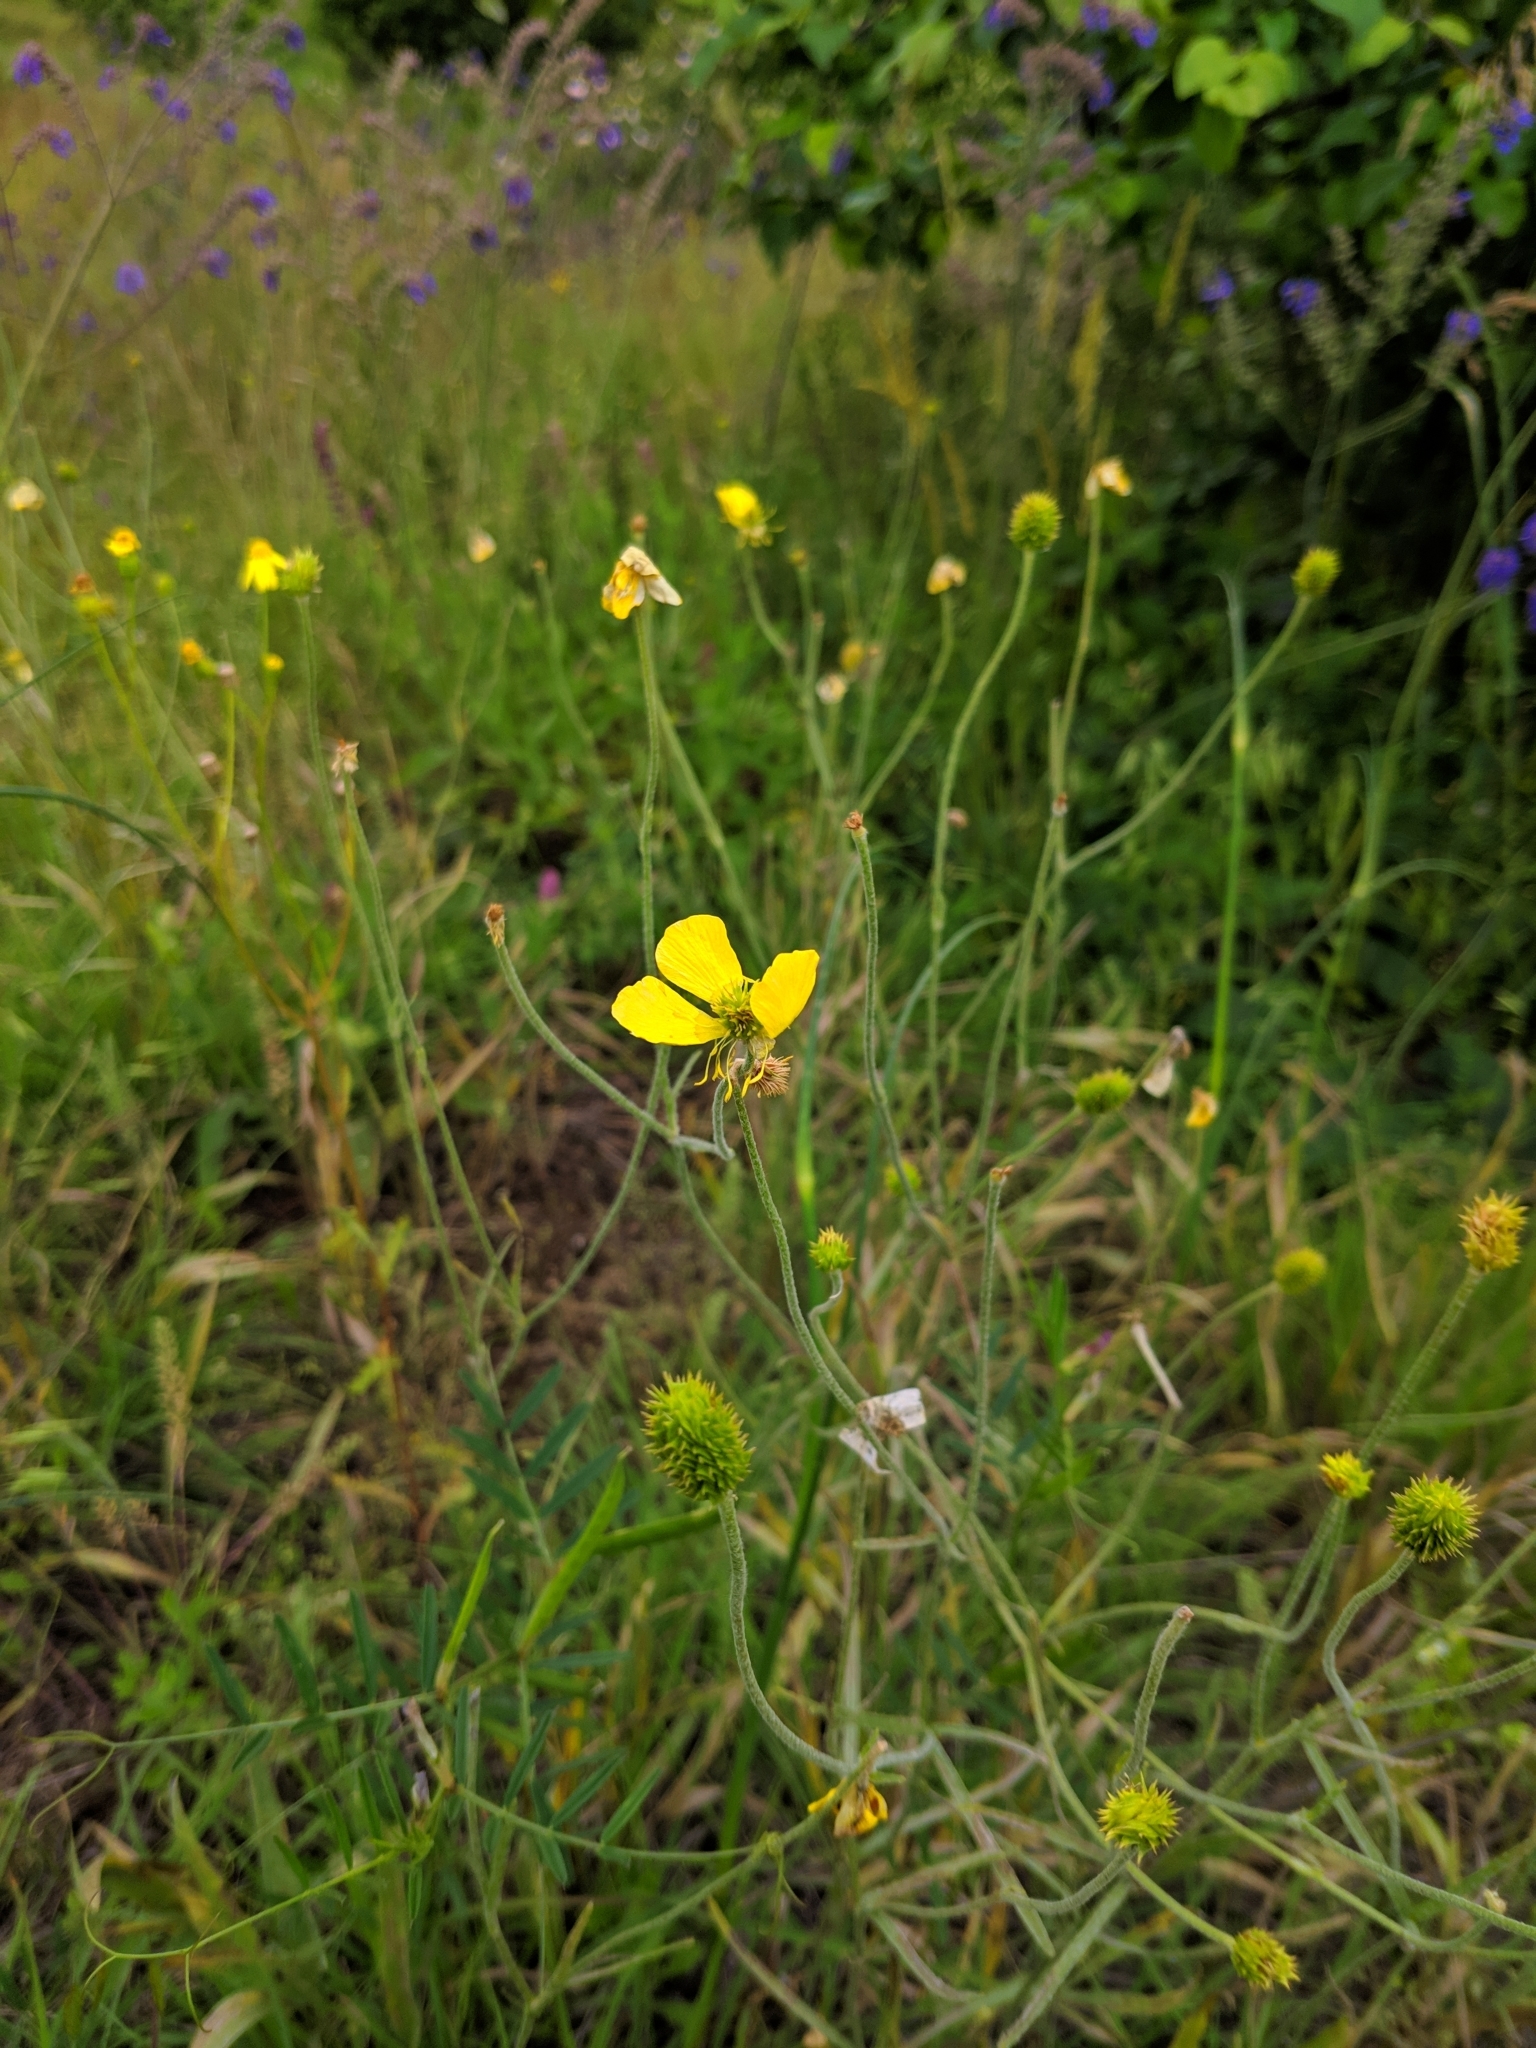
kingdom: Plantae
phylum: Tracheophyta
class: Magnoliopsida
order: Ranunculales
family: Ranunculaceae
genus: Ranunculus
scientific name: Ranunculus illyricus
